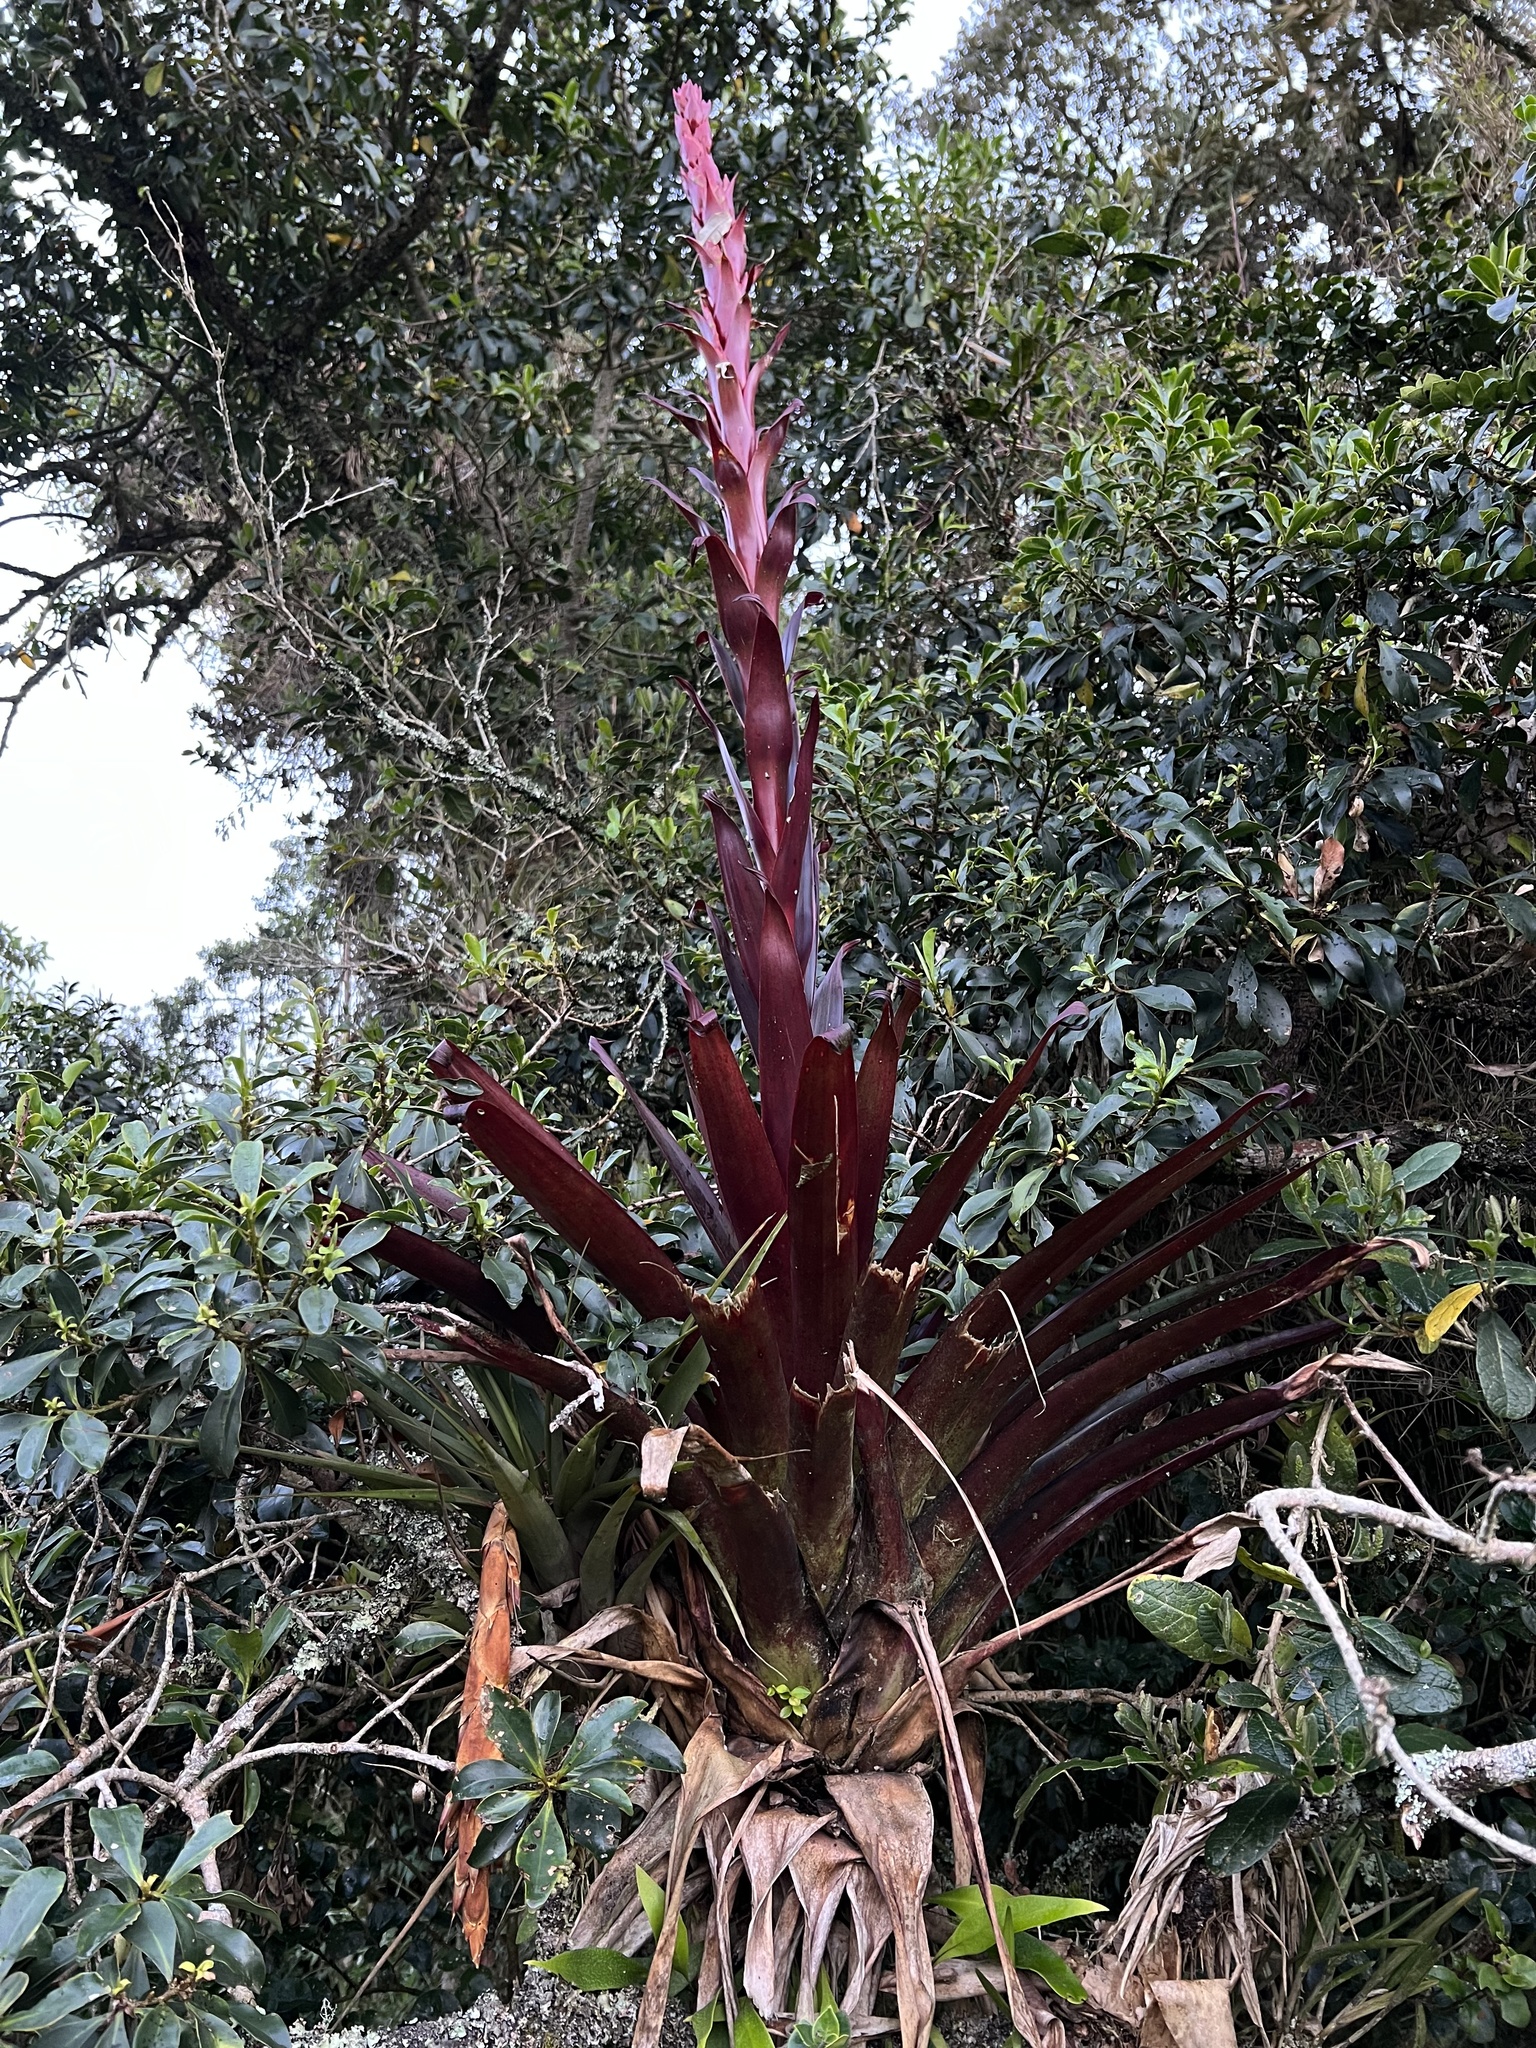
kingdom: Plantae
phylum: Tracheophyta
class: Liliopsida
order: Poales
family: Bromeliaceae
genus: Tillandsia
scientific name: Tillandsia pastensis
